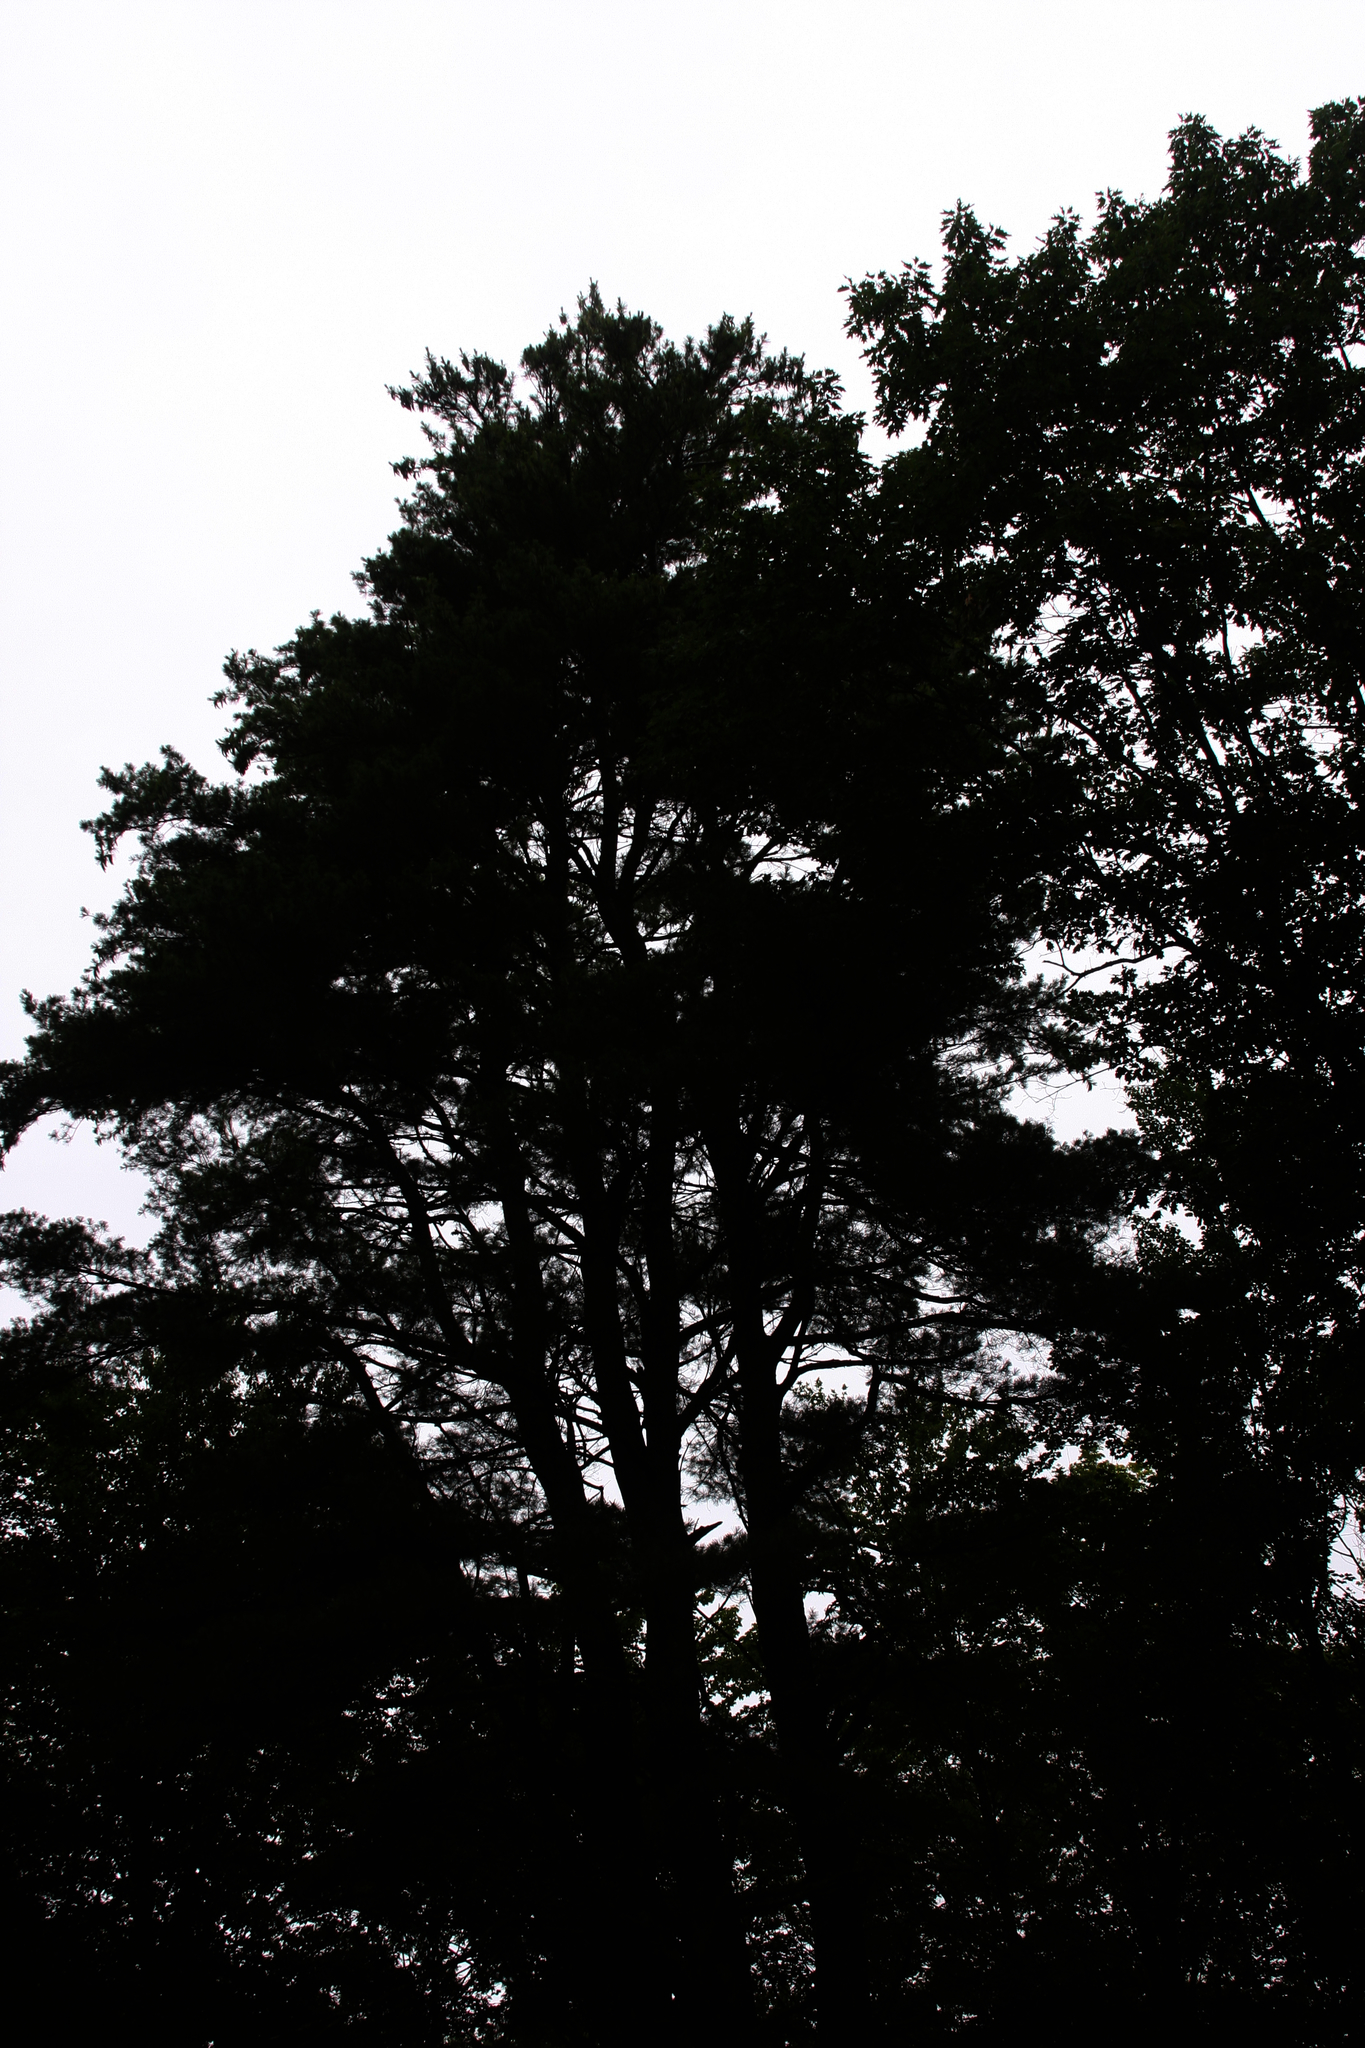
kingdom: Plantae
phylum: Tracheophyta
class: Pinopsida
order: Pinales
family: Pinaceae
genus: Pinus
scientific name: Pinus strobus
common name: Weymouth pine
